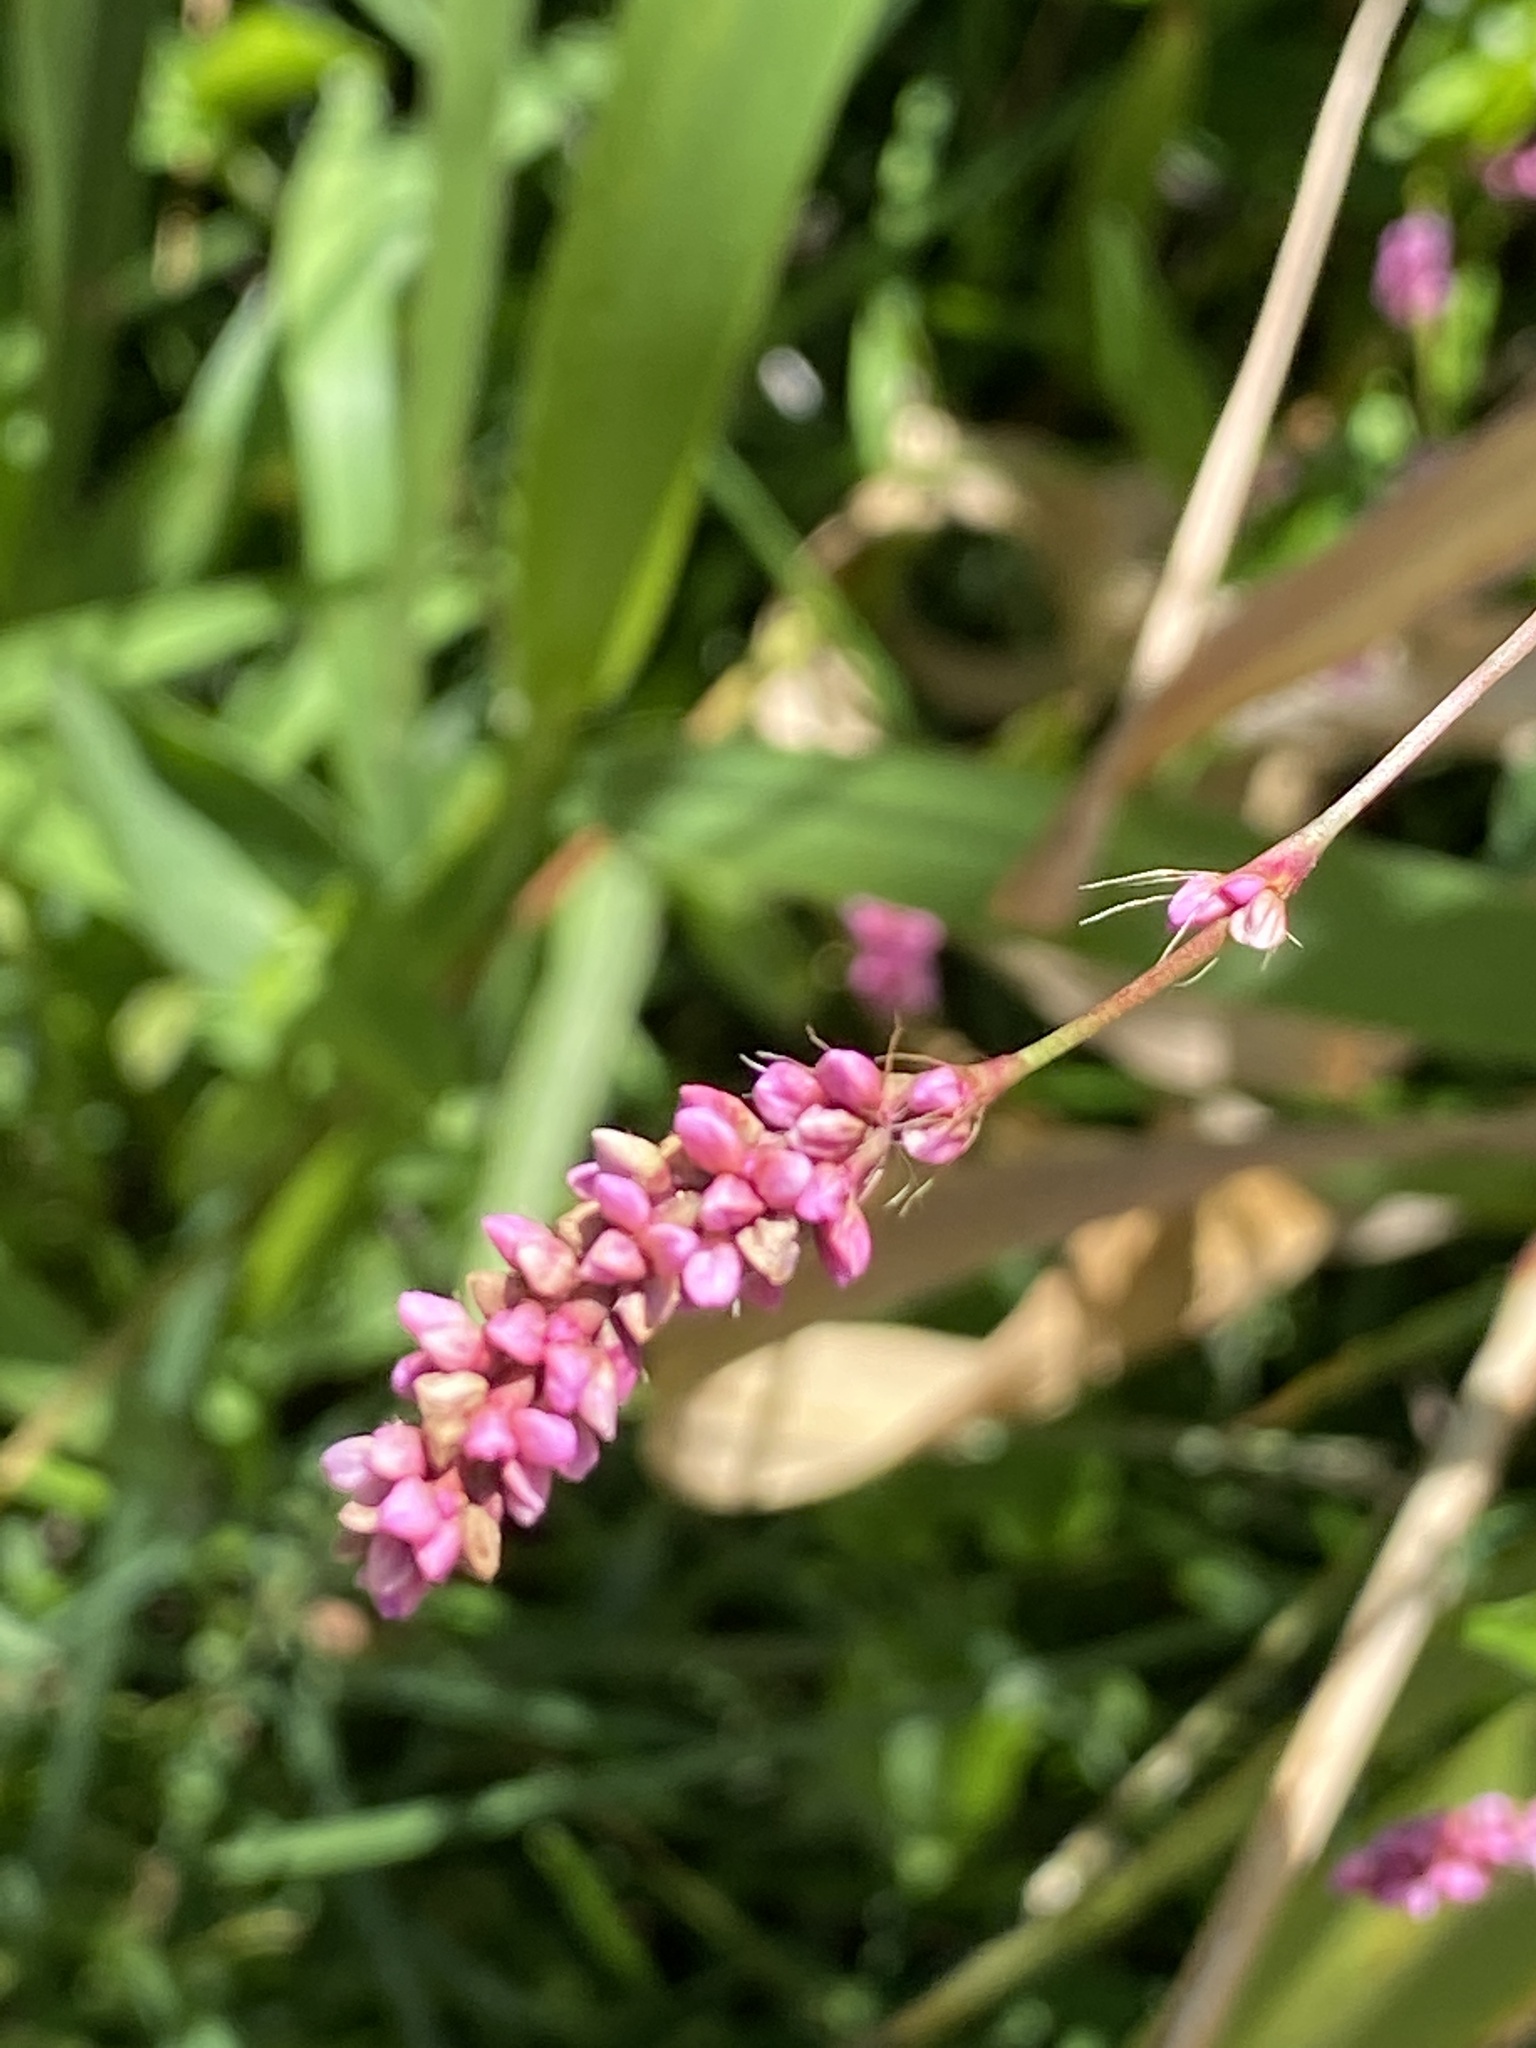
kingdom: Plantae
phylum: Tracheophyta
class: Magnoliopsida
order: Caryophyllales
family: Polygonaceae
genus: Persicaria
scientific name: Persicaria longiseta
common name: Bristly lady's-thumb
